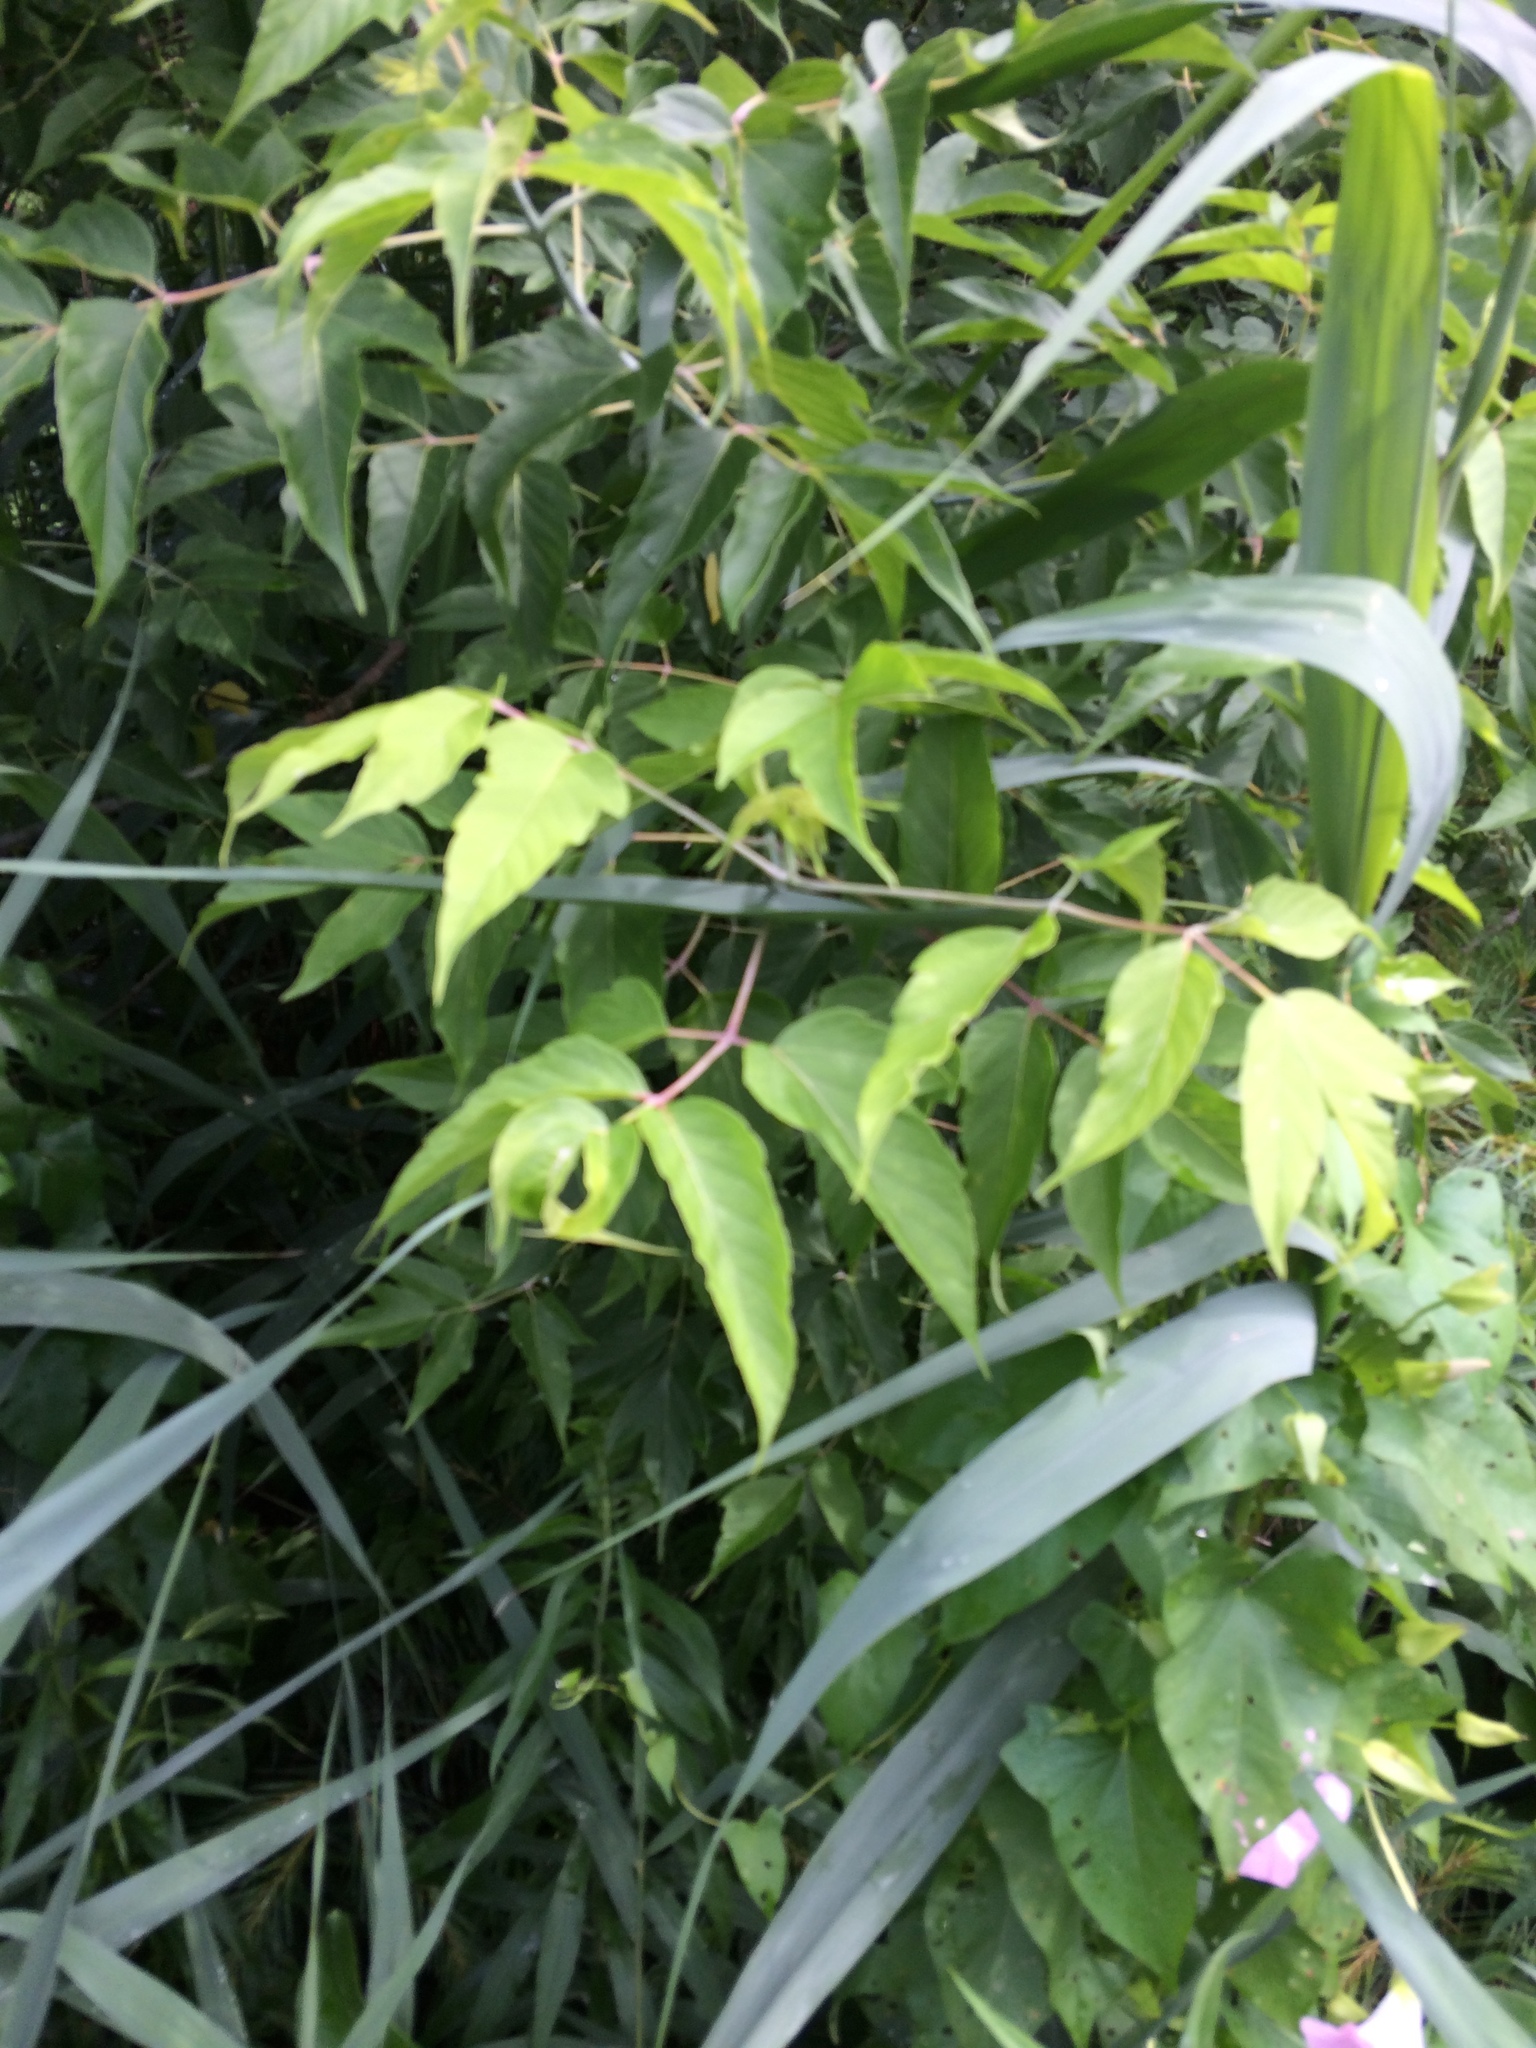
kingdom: Plantae
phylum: Tracheophyta
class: Magnoliopsida
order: Sapindales
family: Sapindaceae
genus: Acer
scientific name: Acer negundo
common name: Ashleaf maple
